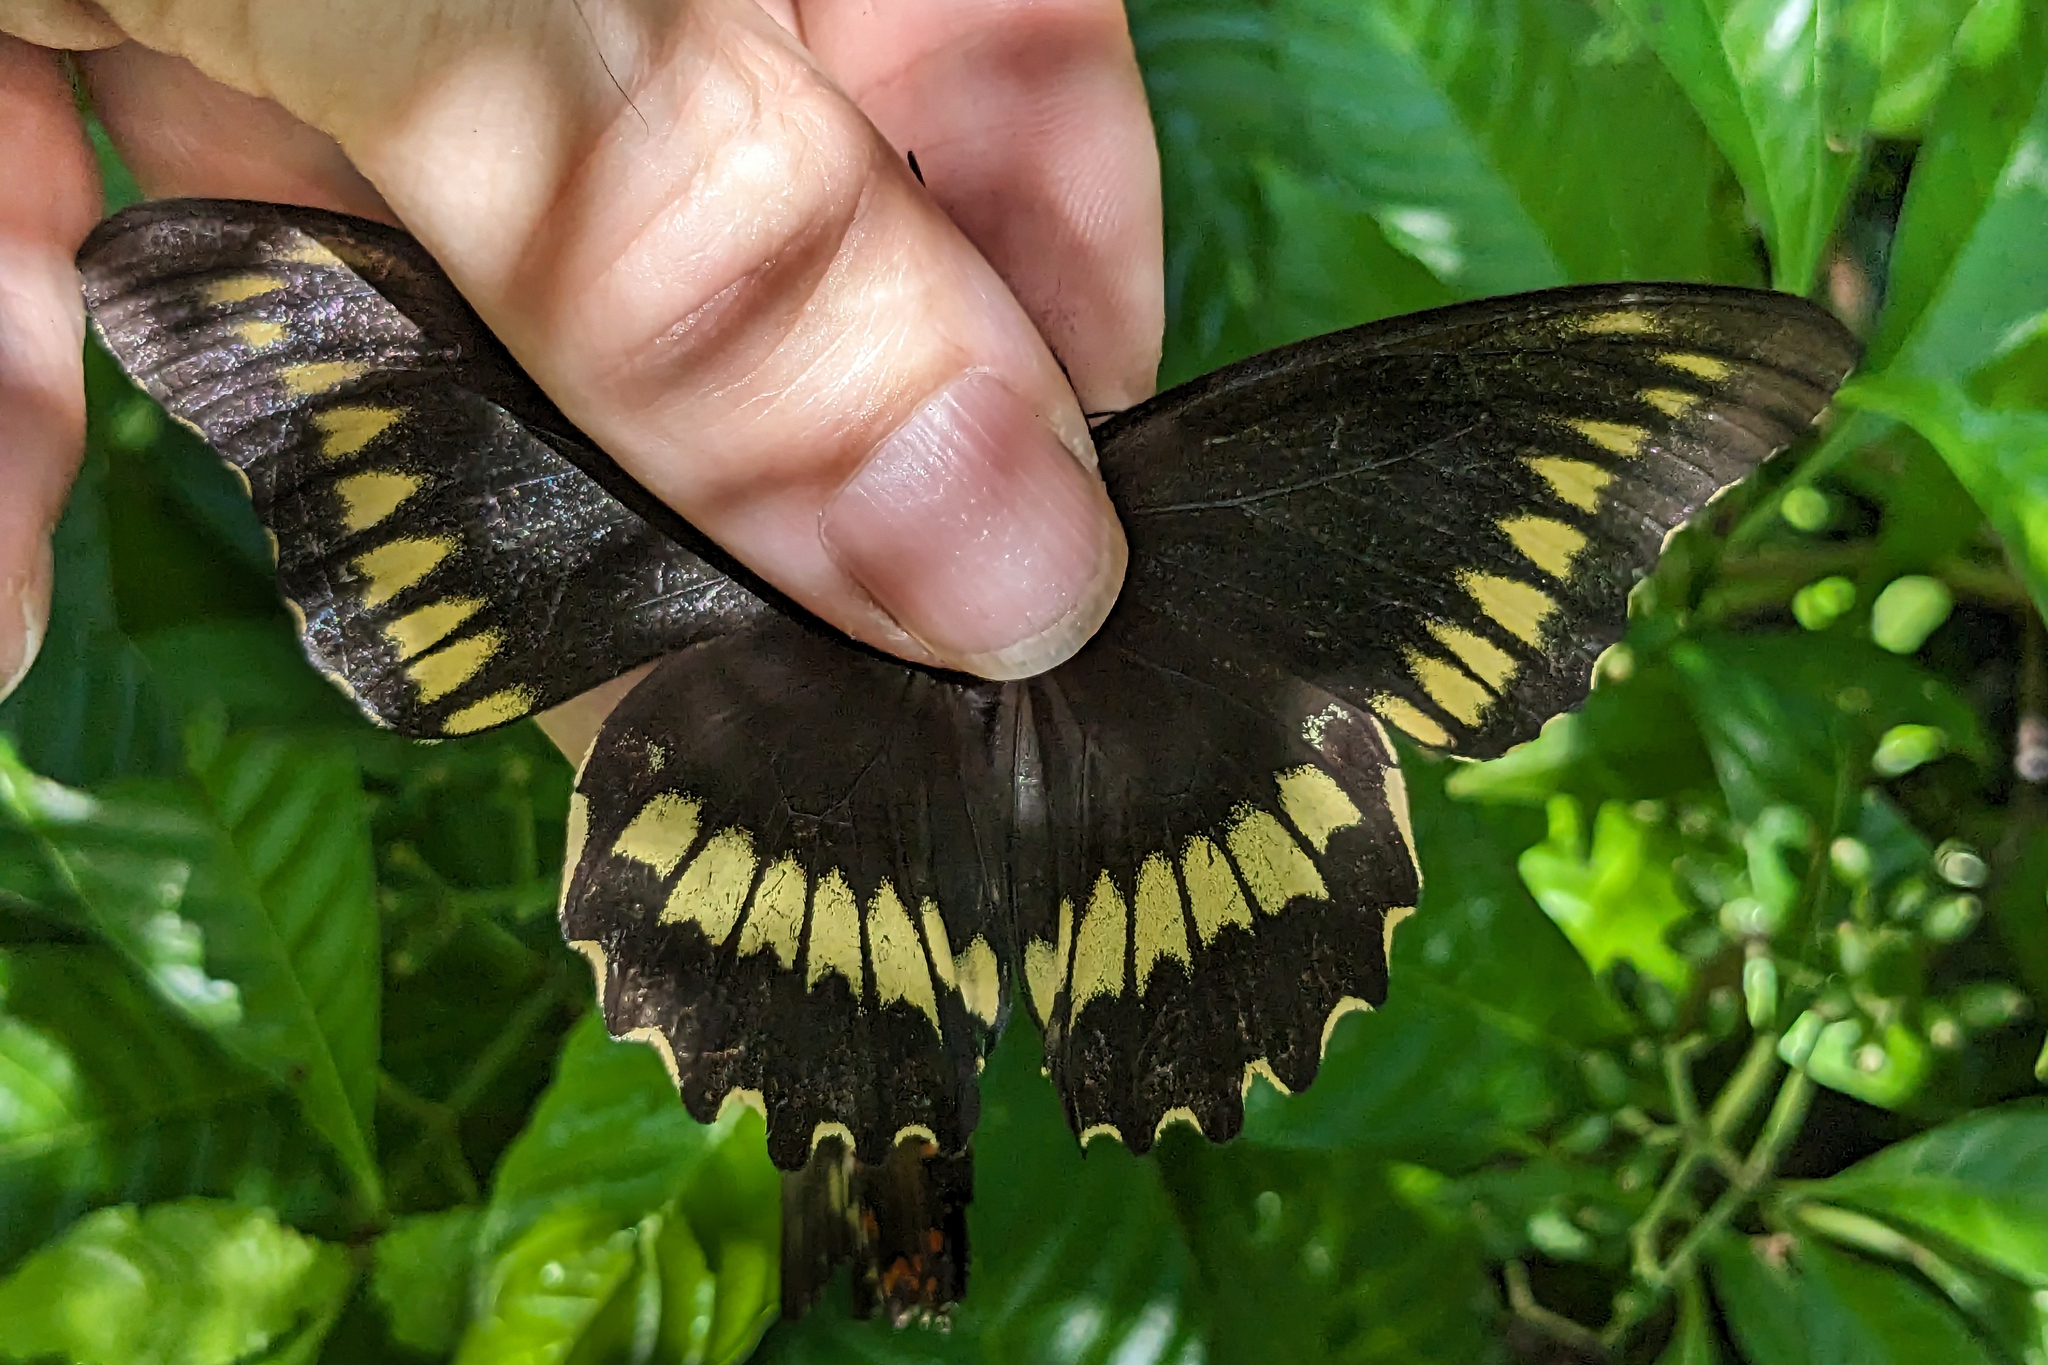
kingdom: Animalia
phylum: Arthropoda
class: Insecta
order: Lepidoptera
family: Papilionidae
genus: Battus
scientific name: Battus polydamas
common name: Polydamas swallowtail
